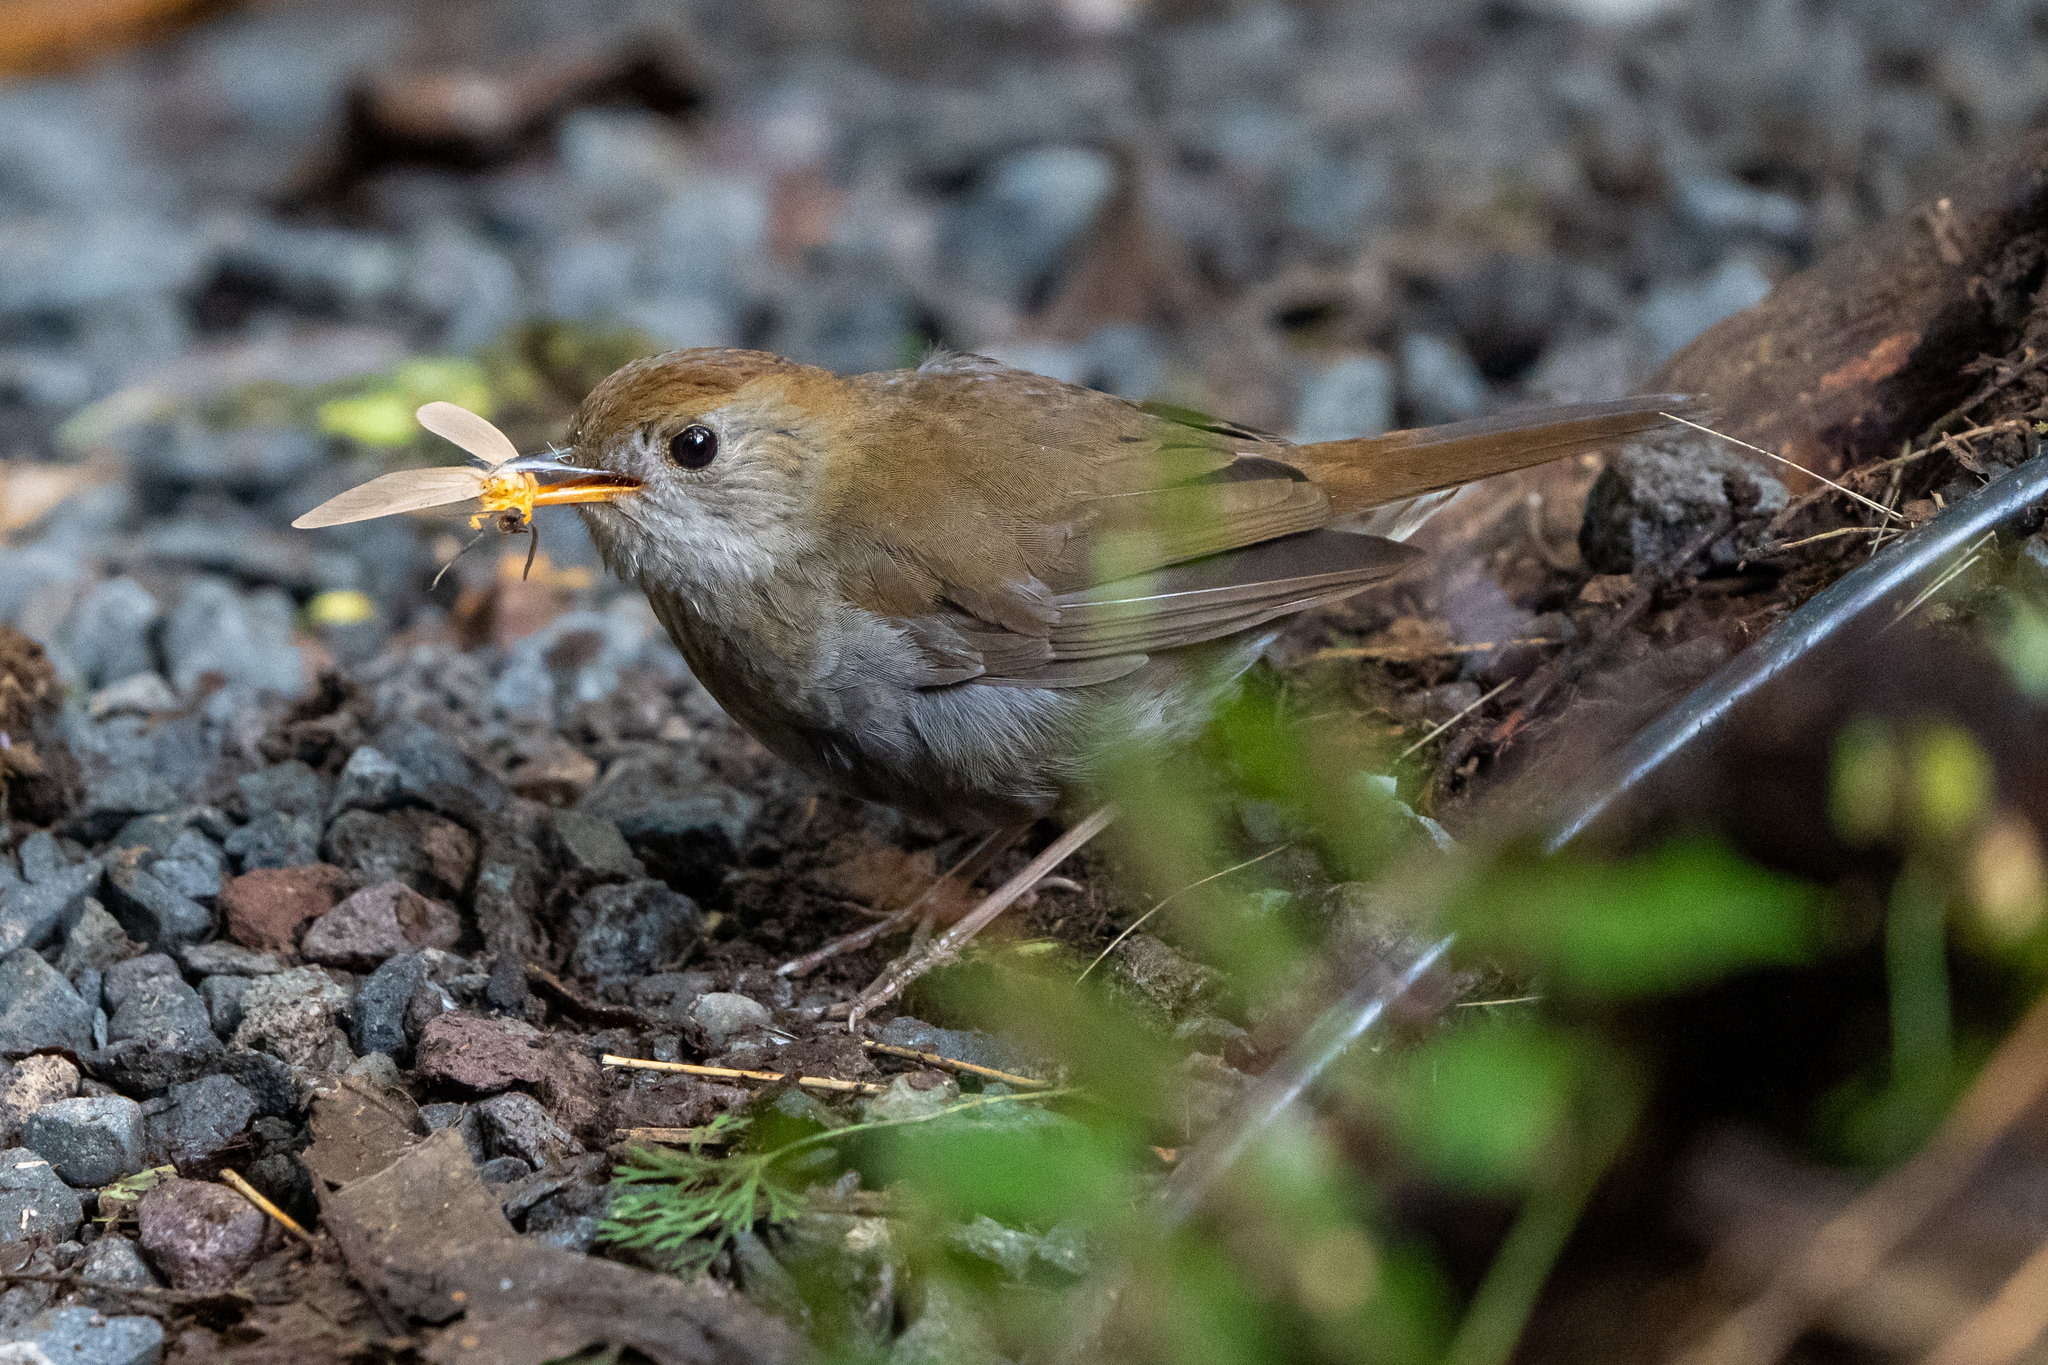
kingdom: Animalia
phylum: Chordata
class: Aves
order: Passeriformes
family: Turdidae
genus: Catharus
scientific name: Catharus frantzii
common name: Ruddy-capped nightingale-thrush
